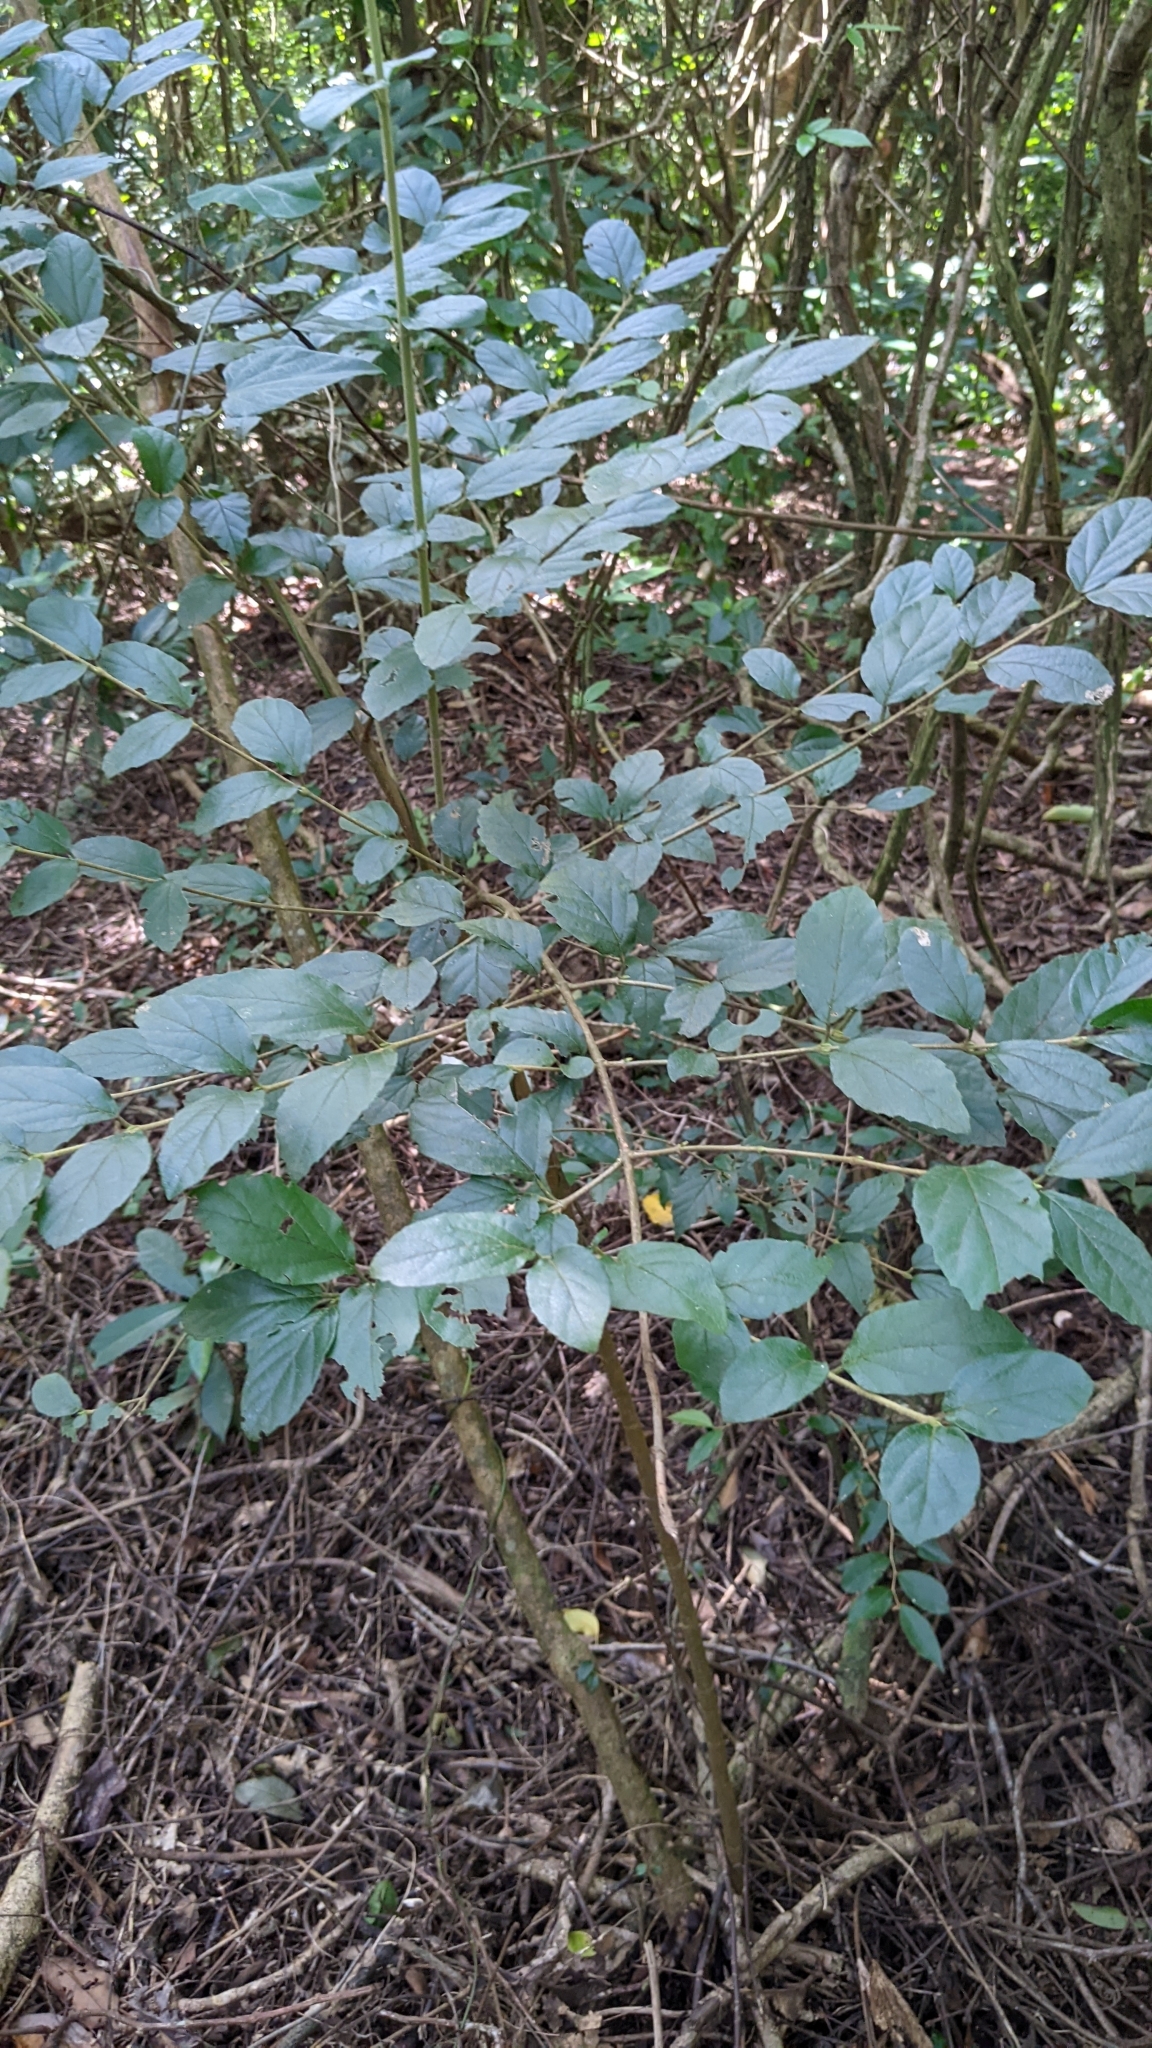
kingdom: Plantae
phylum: Tracheophyta
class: Magnoliopsida
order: Dipsacales
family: Viburnaceae
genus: Viburnum
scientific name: Viburnum luzonicum
